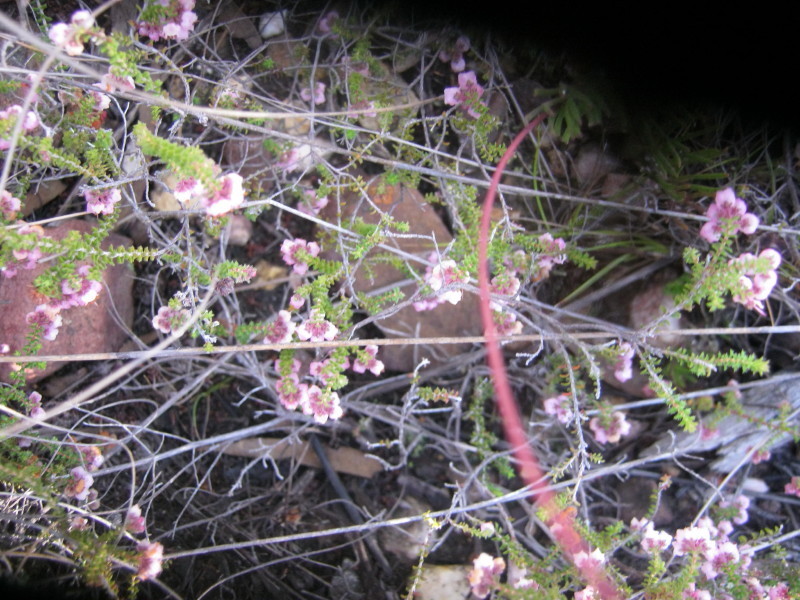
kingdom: Plantae
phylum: Tracheophyta
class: Magnoliopsida
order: Ericales
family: Ericaceae
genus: Erica
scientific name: Erica brachycentra
